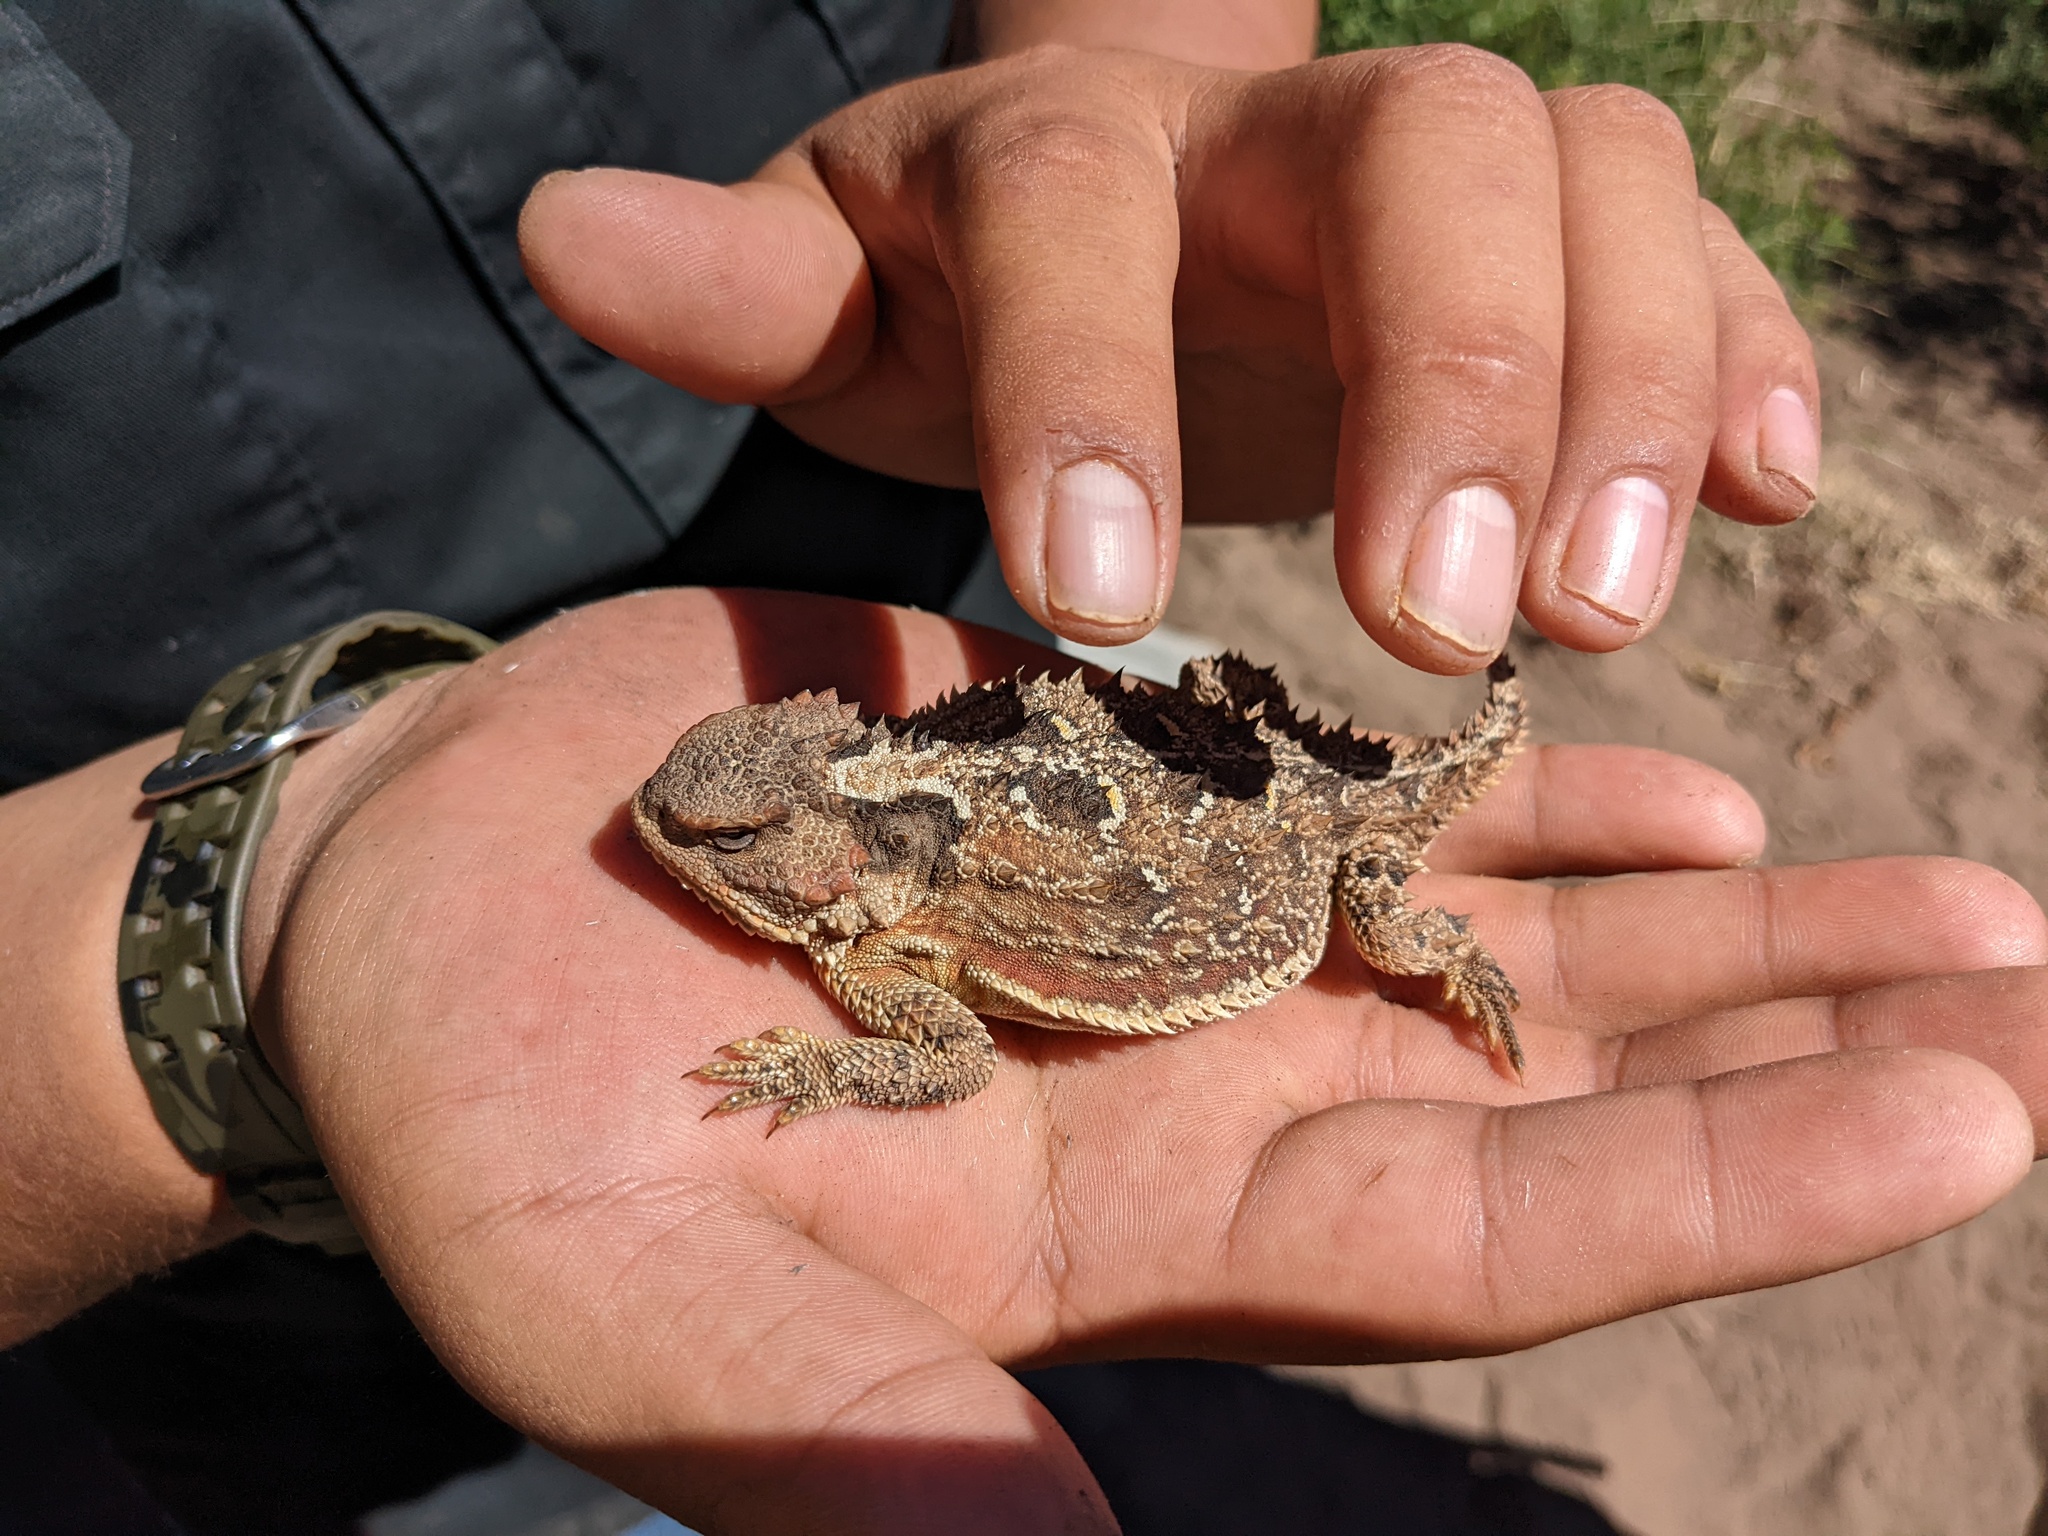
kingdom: Animalia
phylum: Chordata
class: Squamata
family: Phrynosomatidae
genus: Phrynosoma
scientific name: Phrynosoma hernandesi
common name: Greater short-horned lizard
